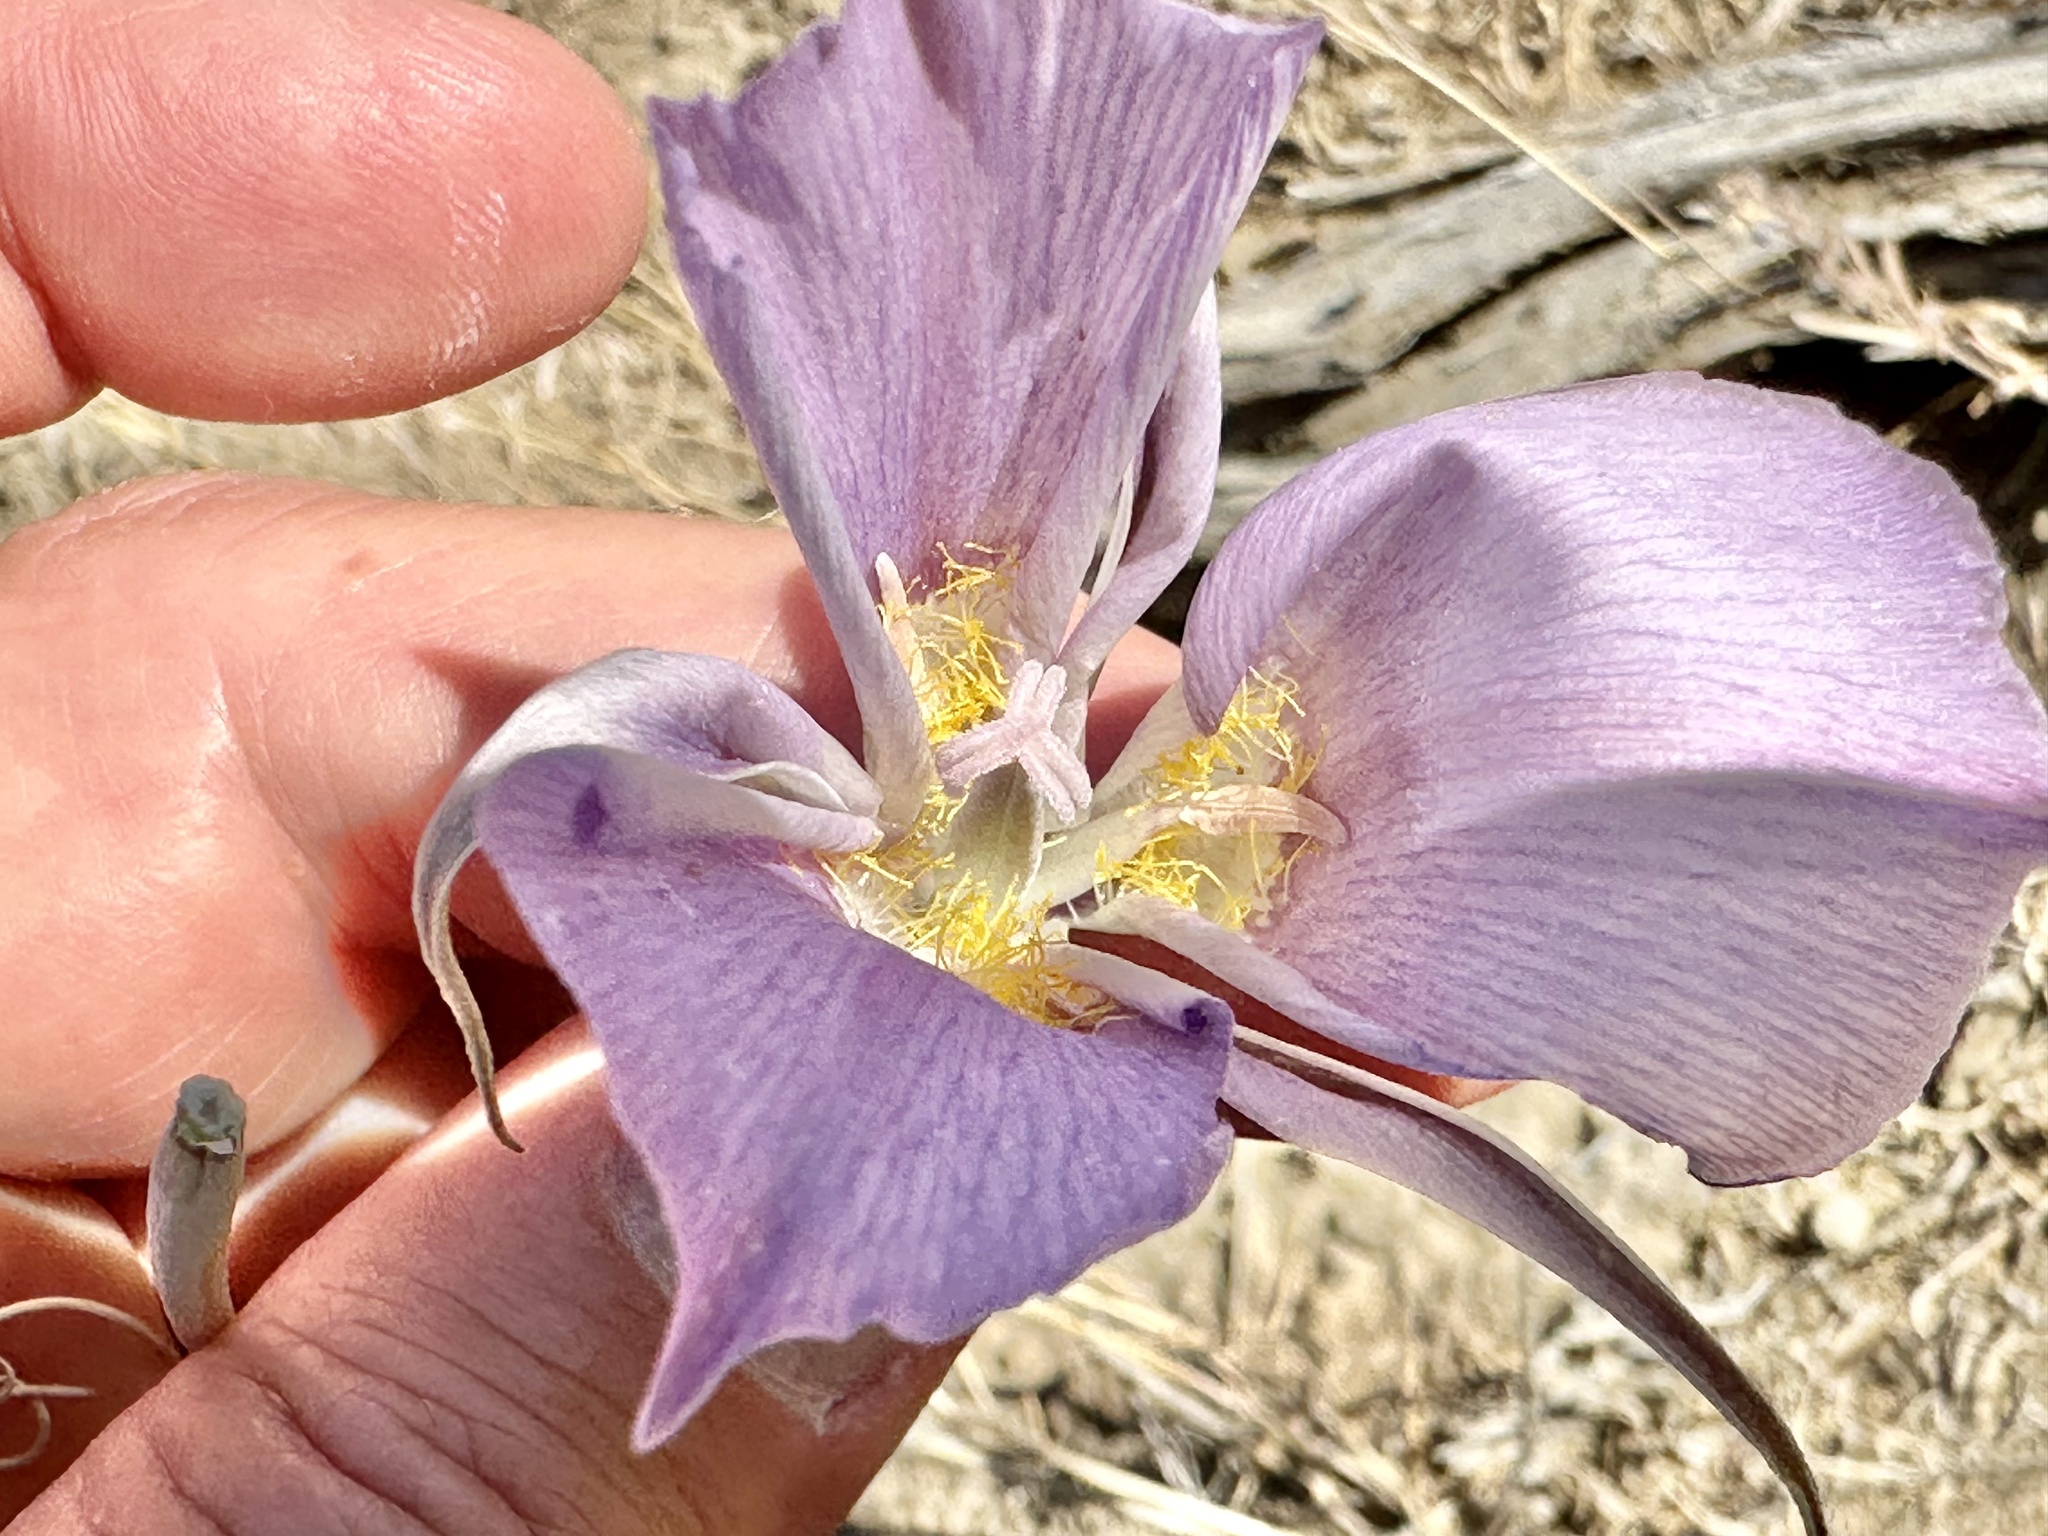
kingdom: Plantae
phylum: Tracheophyta
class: Liliopsida
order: Liliales
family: Liliaceae
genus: Calochortus
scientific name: Calochortus macrocarpus
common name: Green-band mariposa lily
